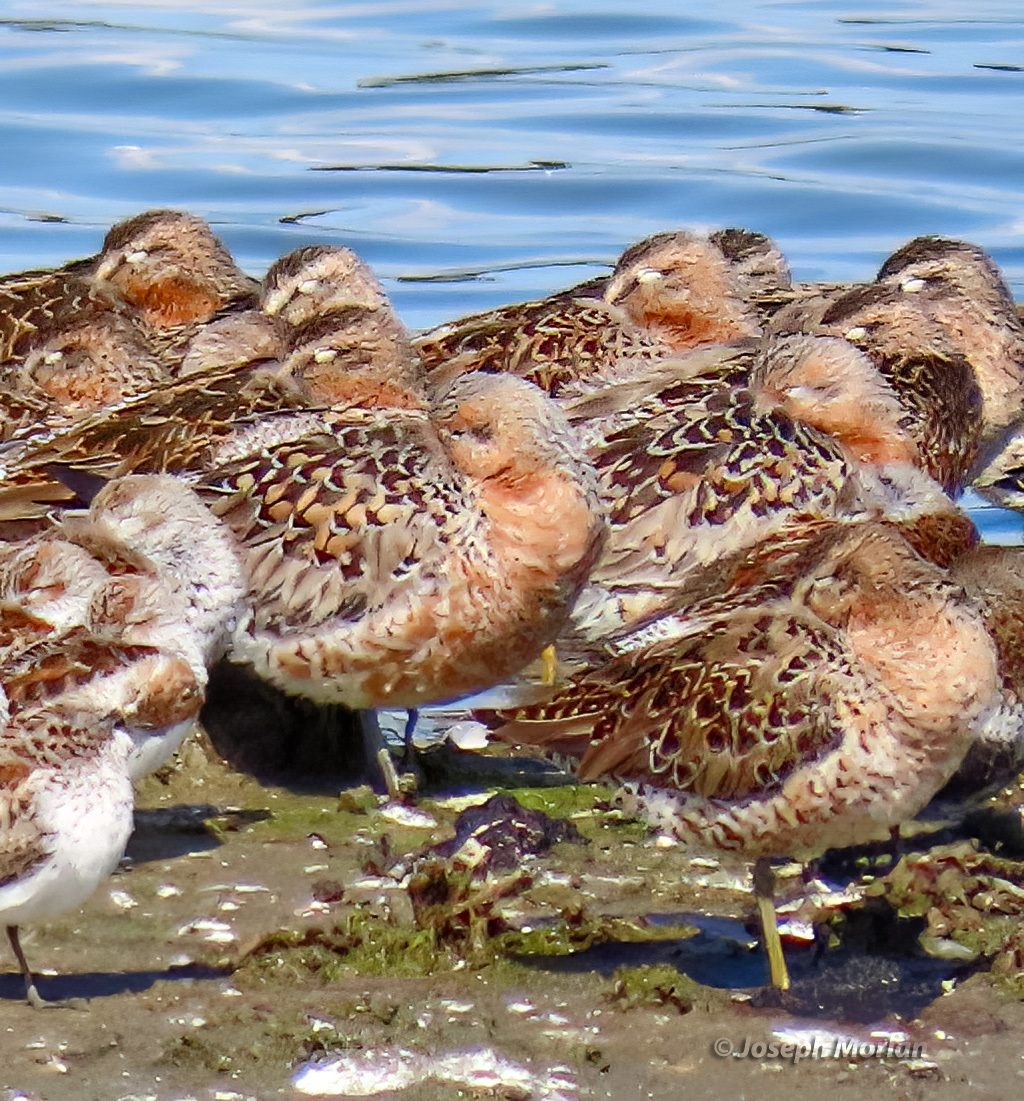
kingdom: Animalia
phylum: Chordata
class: Aves
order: Charadriiformes
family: Scolopacidae
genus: Calidris
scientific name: Calidris canutus
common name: Red knot
